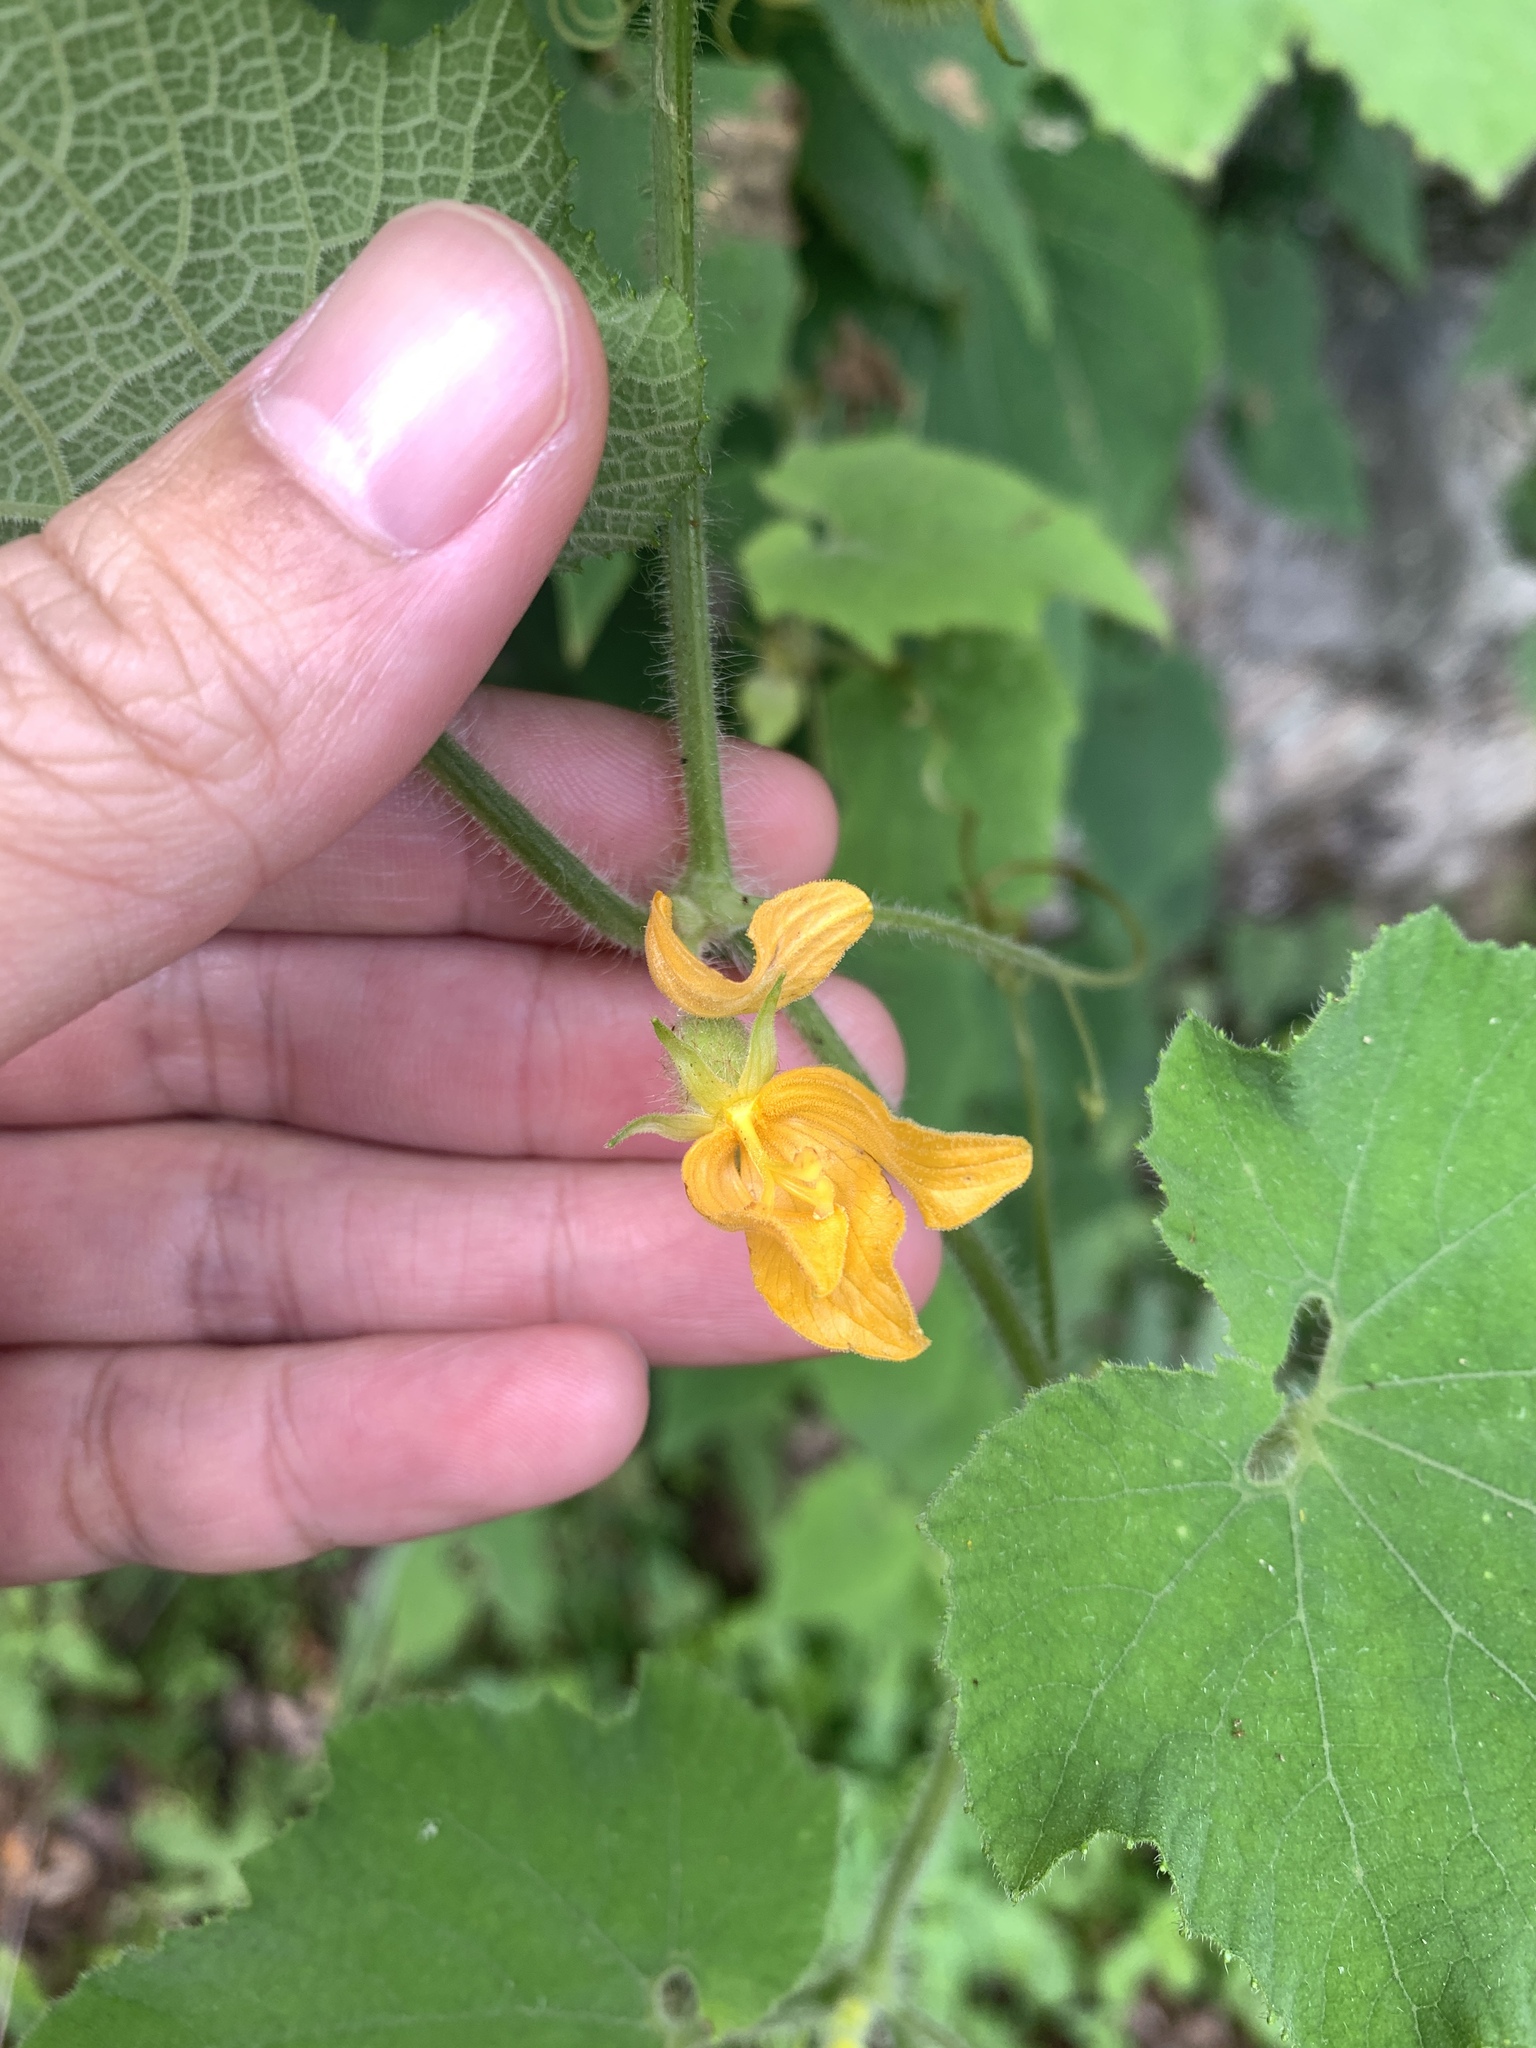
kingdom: Plantae
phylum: Tracheophyta
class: Magnoliopsida
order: Cucurbitales
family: Cucurbitaceae
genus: Thladiantha
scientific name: Thladiantha nudiflora
